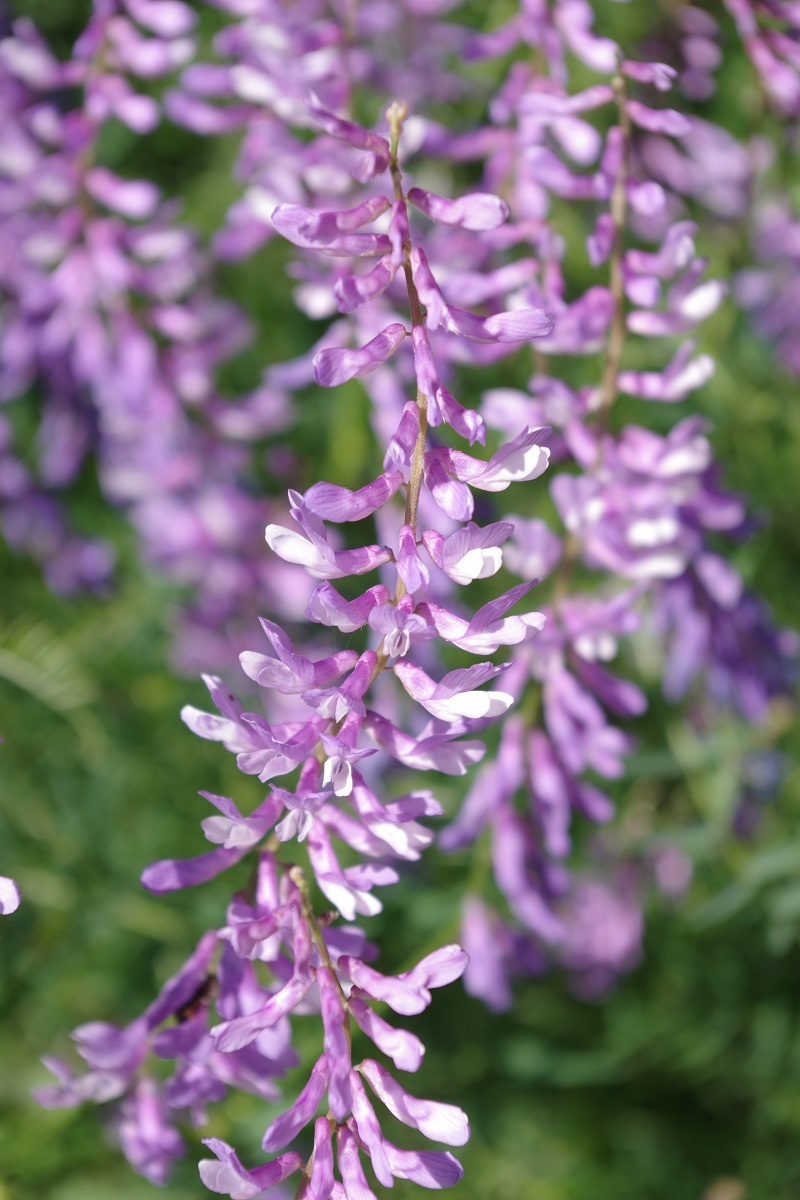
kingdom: Plantae
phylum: Tracheophyta
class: Magnoliopsida
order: Fabales
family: Fabaceae
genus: Vicia
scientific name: Vicia tenuifolia
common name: Fine-leaved vetch
